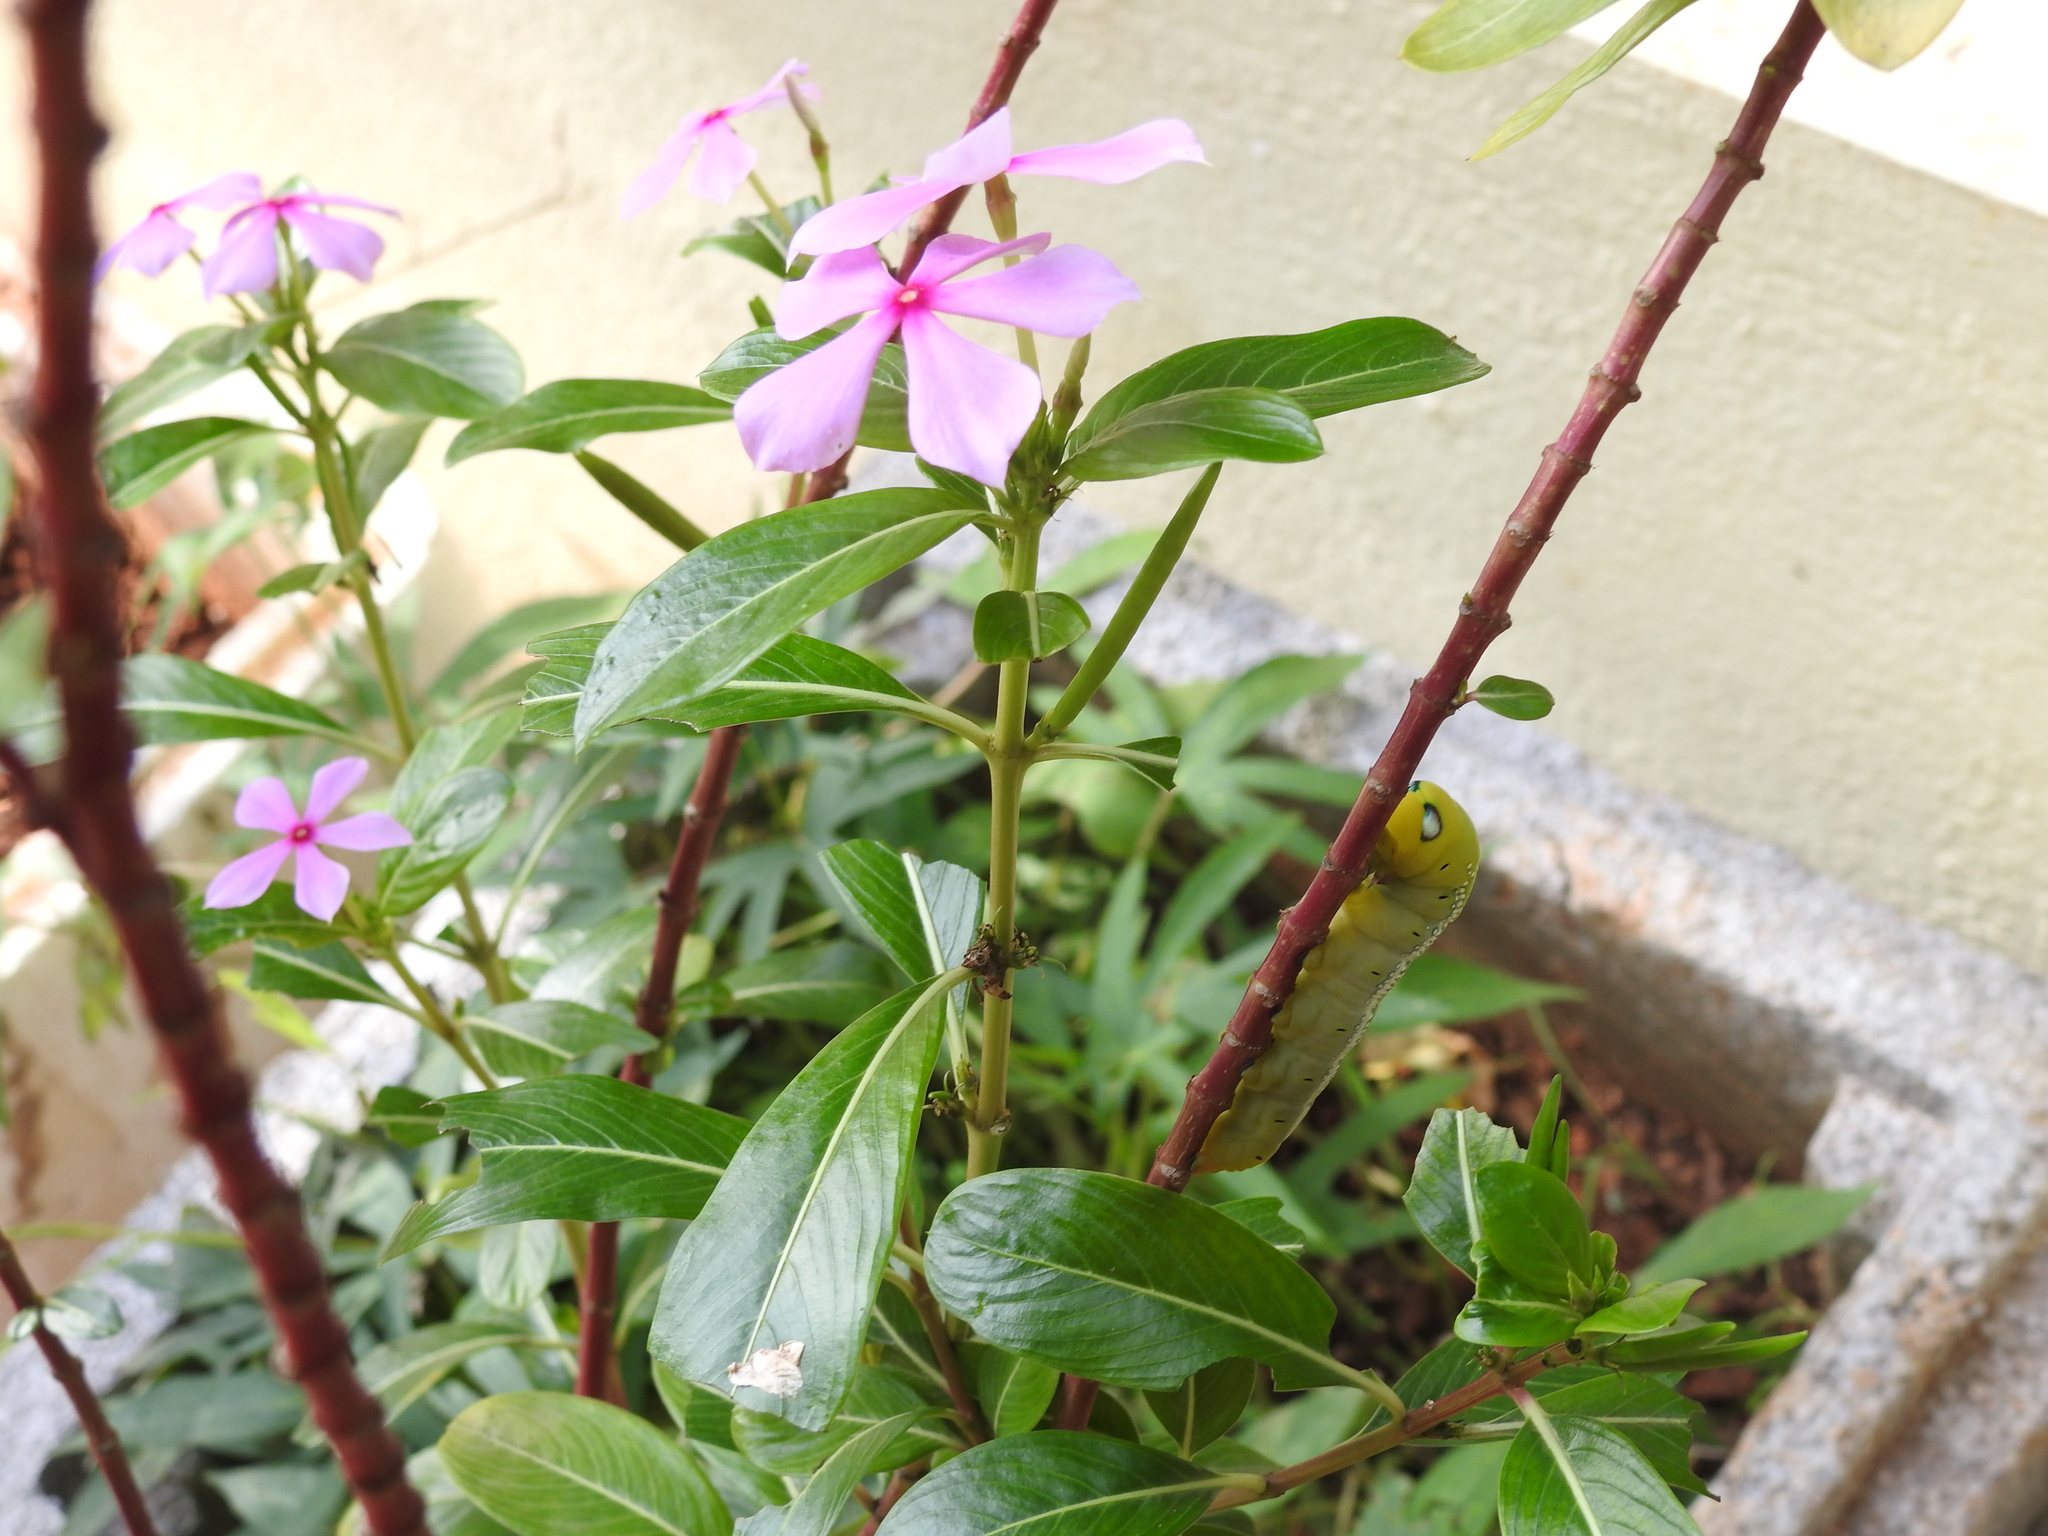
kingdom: Animalia
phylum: Arthropoda
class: Insecta
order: Lepidoptera
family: Sphingidae
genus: Daphnis
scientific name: Daphnis nerii
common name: Oleander hawk-moth
